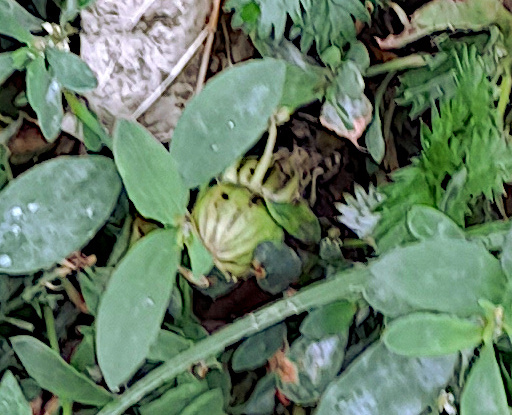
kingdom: Plantae
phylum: Tracheophyta
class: Magnoliopsida
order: Asterales
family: Asteraceae
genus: Taraxacum
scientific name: Taraxacum officinale
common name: Common dandelion
